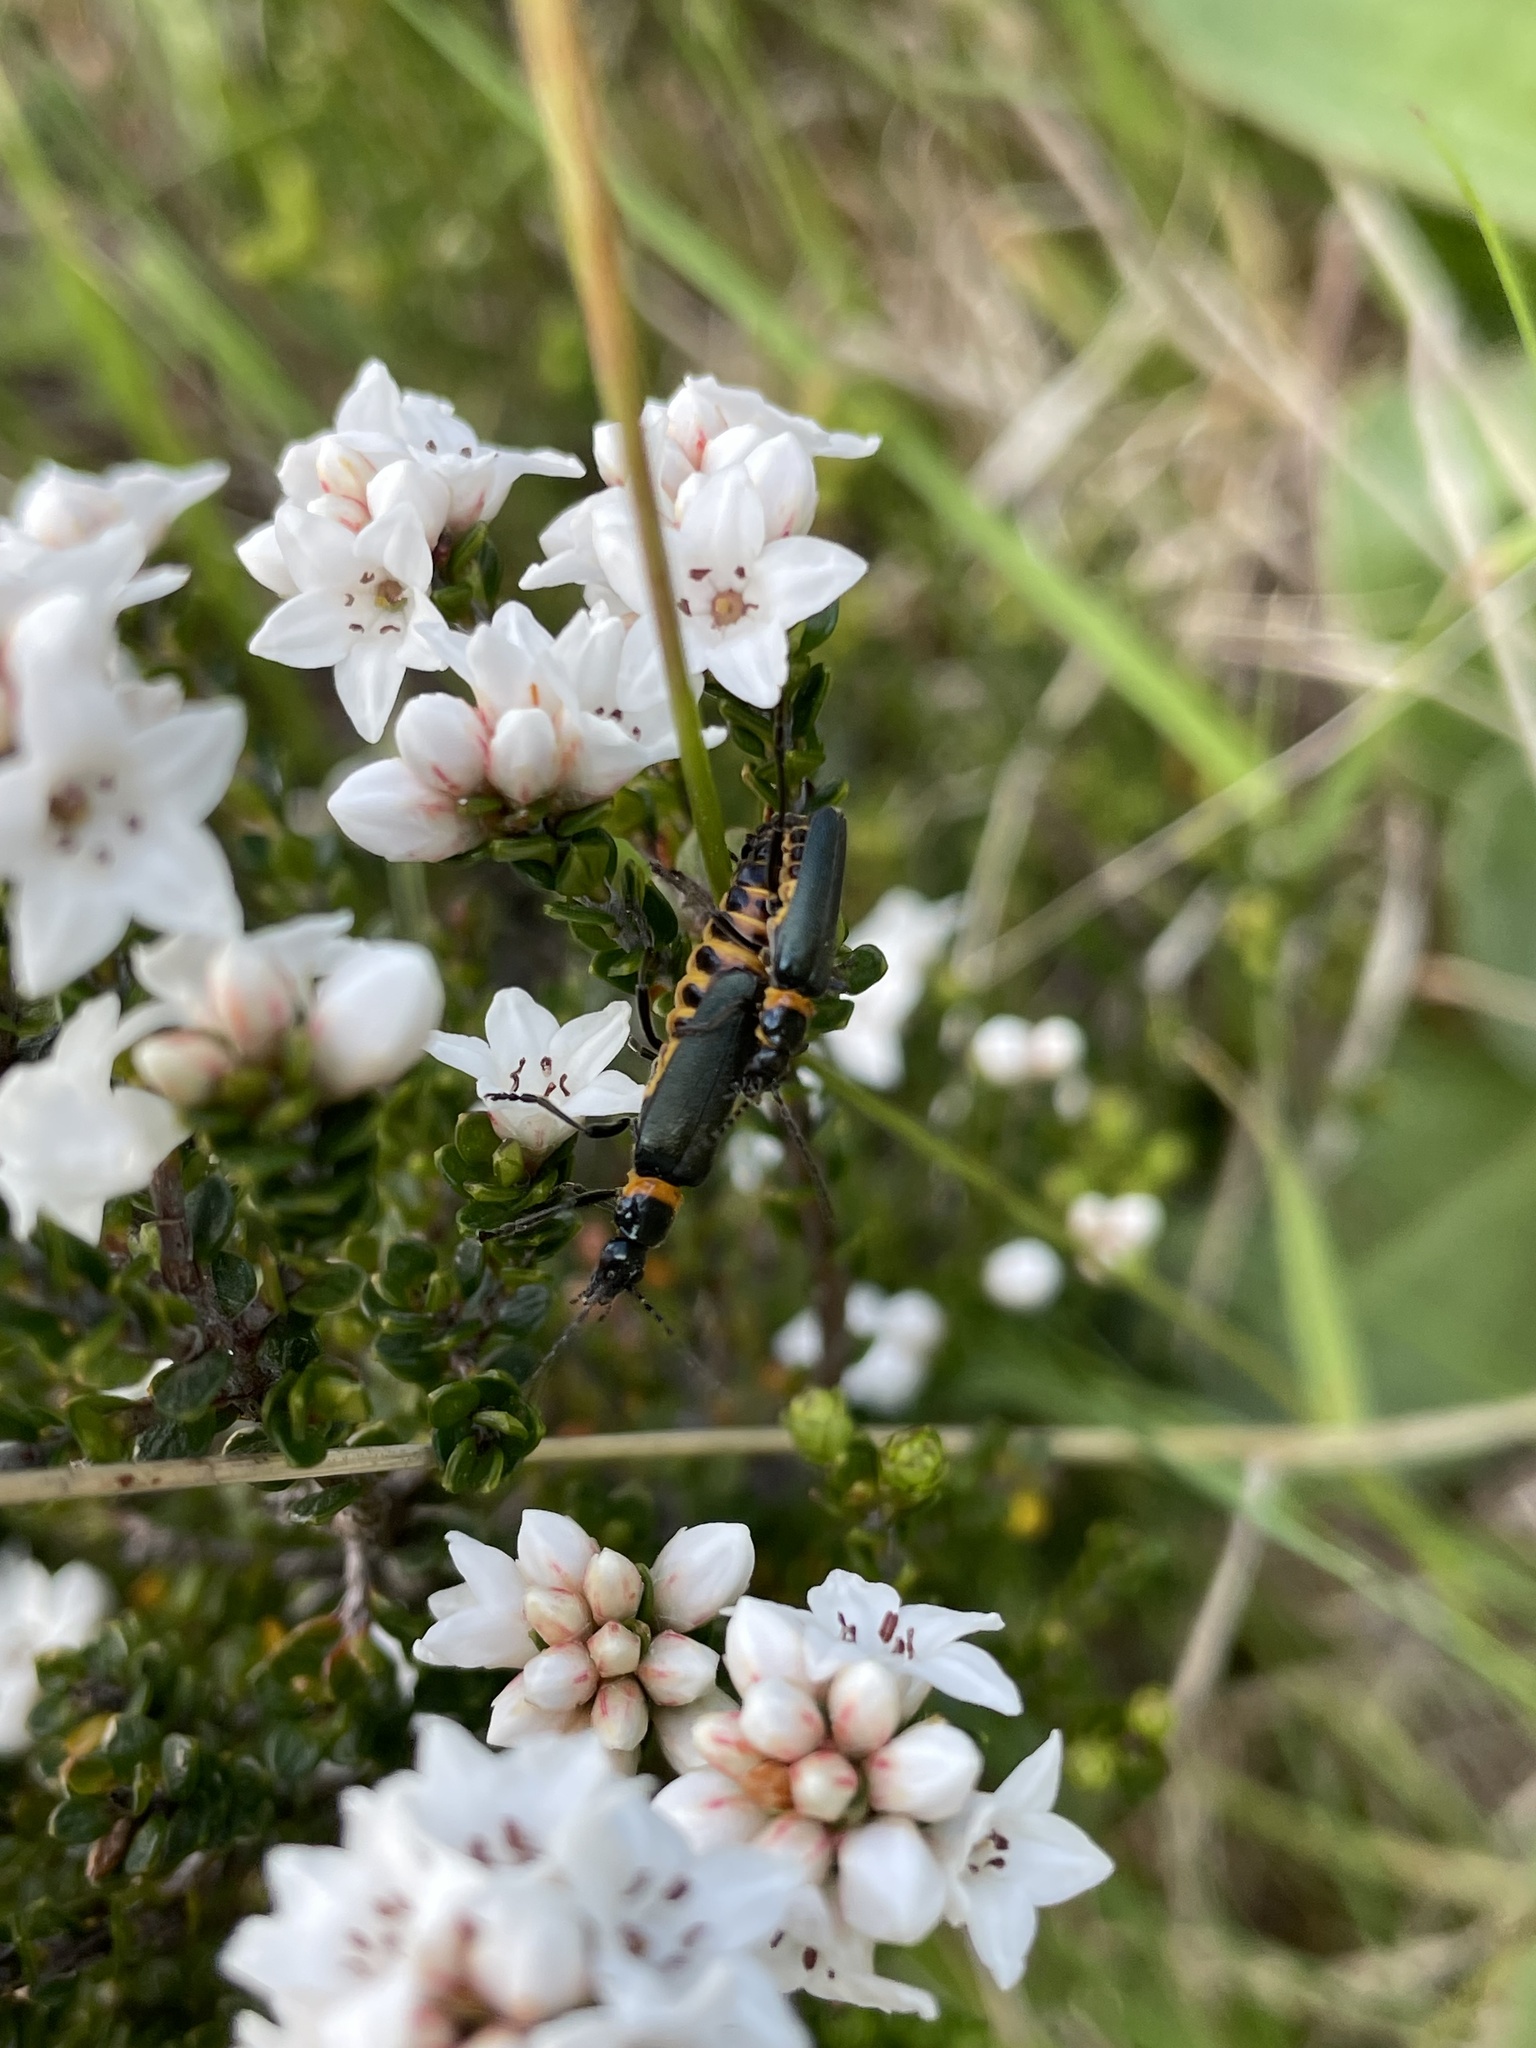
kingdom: Animalia
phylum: Arthropoda
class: Insecta
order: Coleoptera
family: Cantharidae
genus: Chauliognathus
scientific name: Chauliognathus
